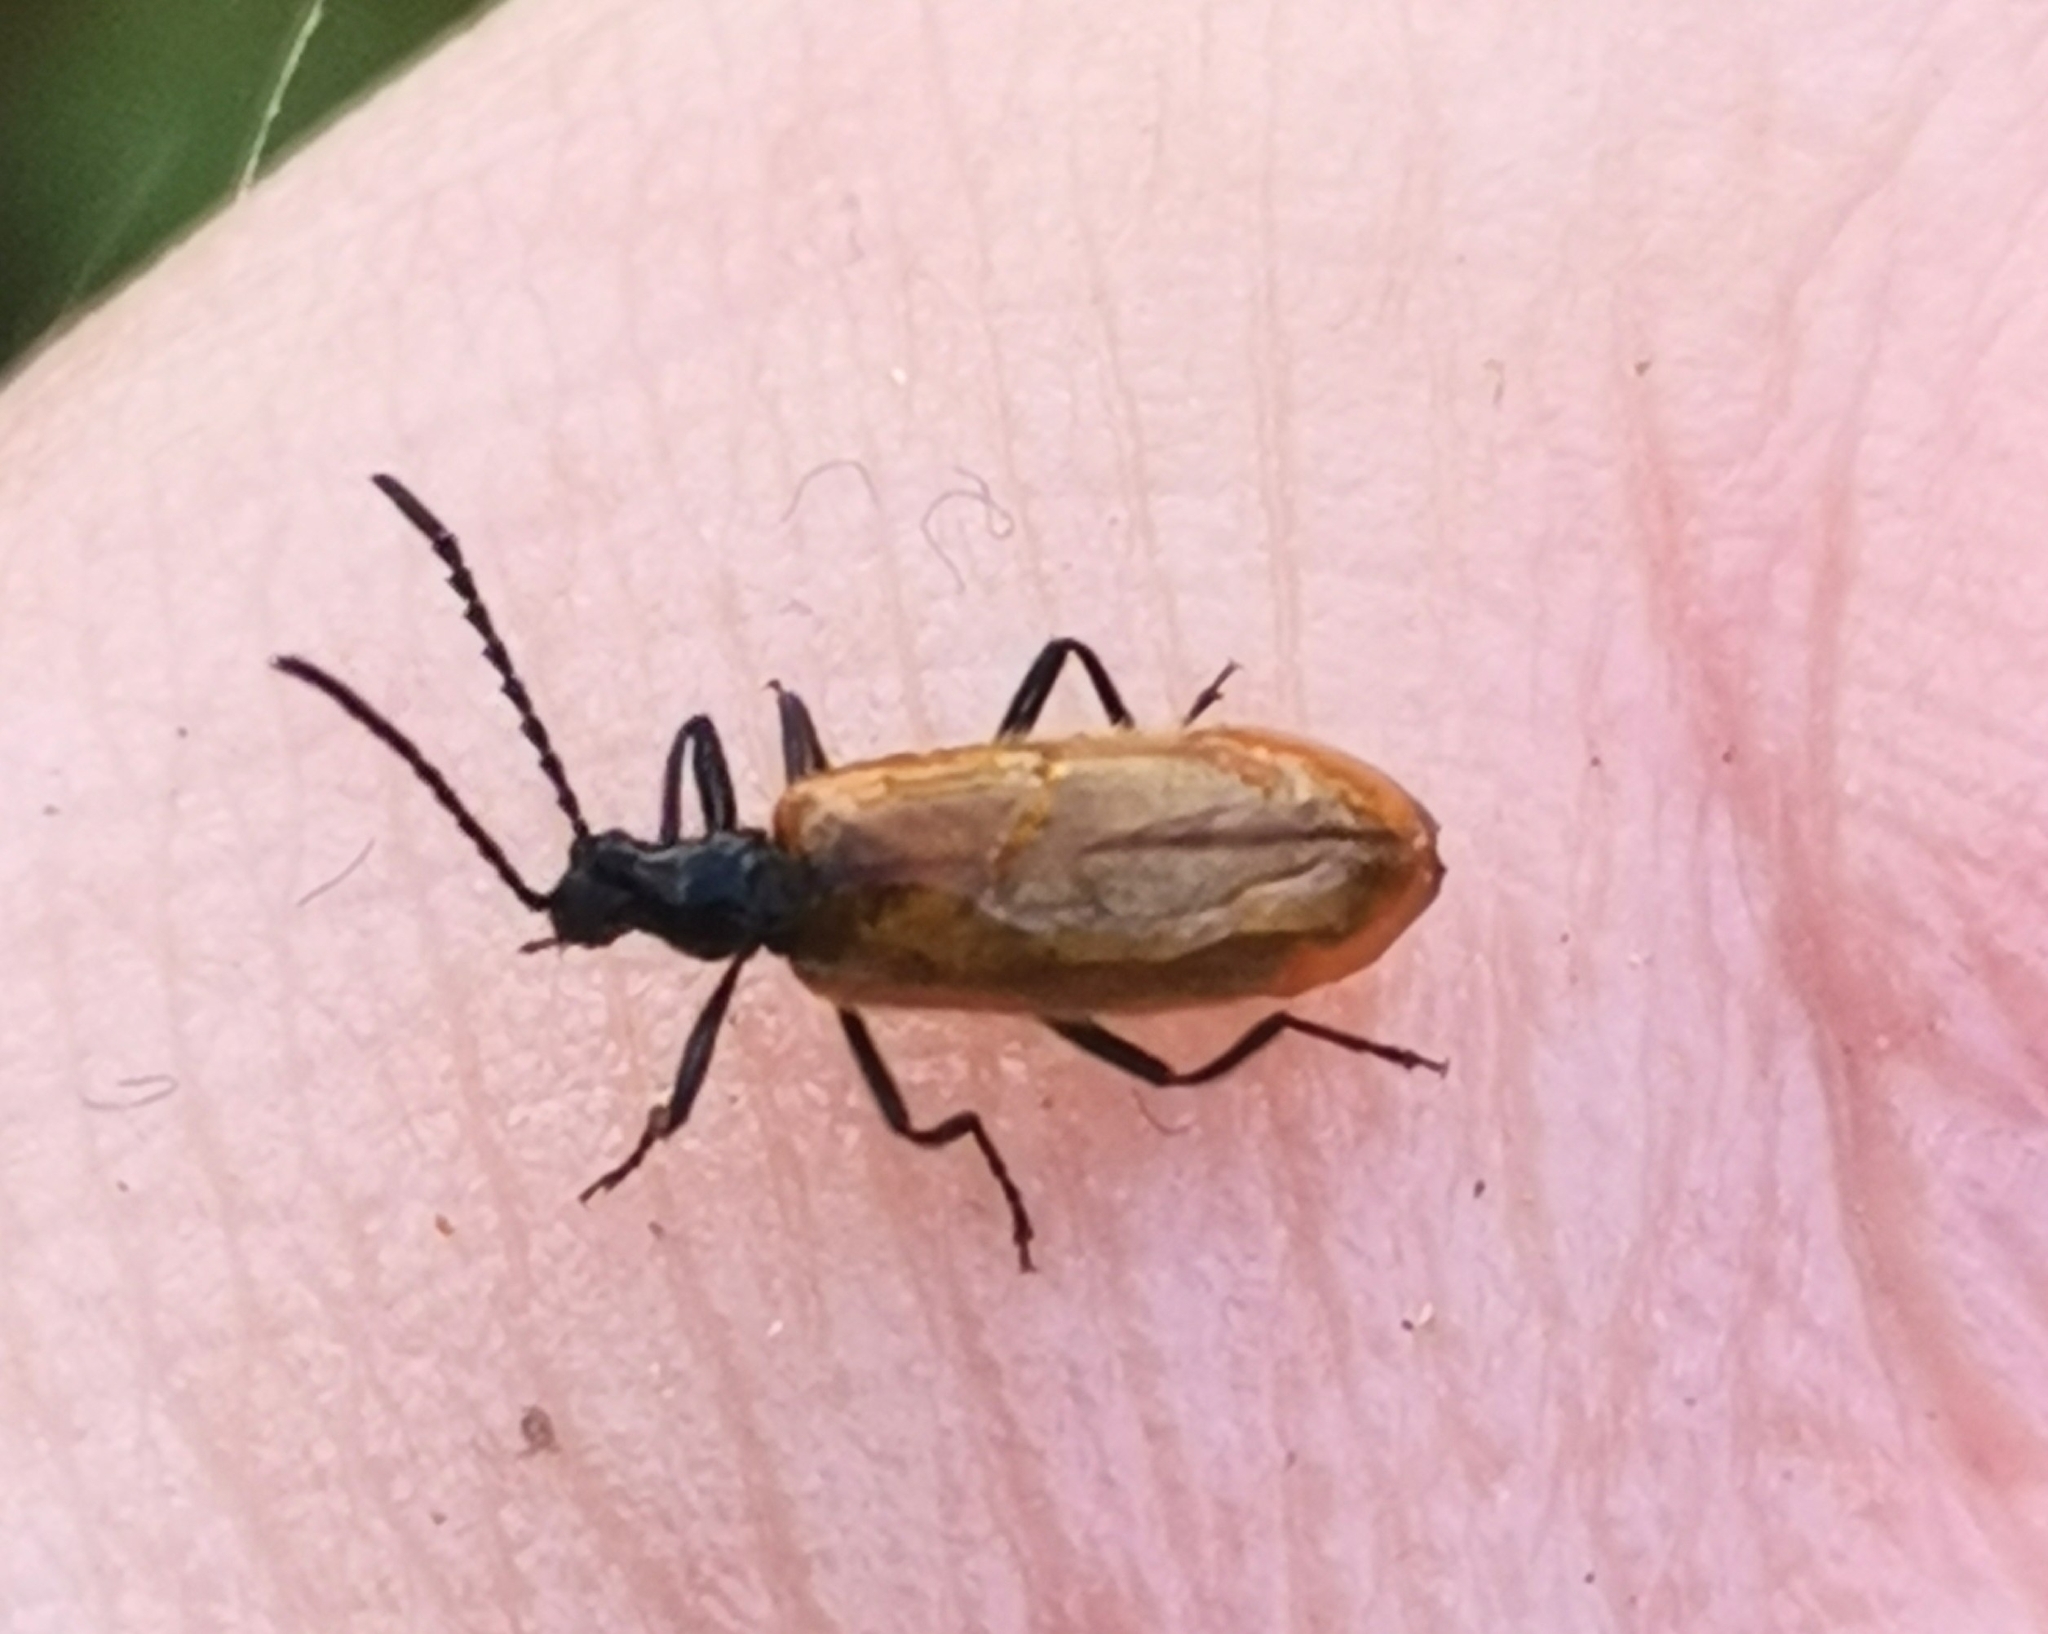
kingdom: Animalia
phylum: Arthropoda
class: Insecta
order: Coleoptera
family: Tenebrionidae
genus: Lagria
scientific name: Lagria hirta
